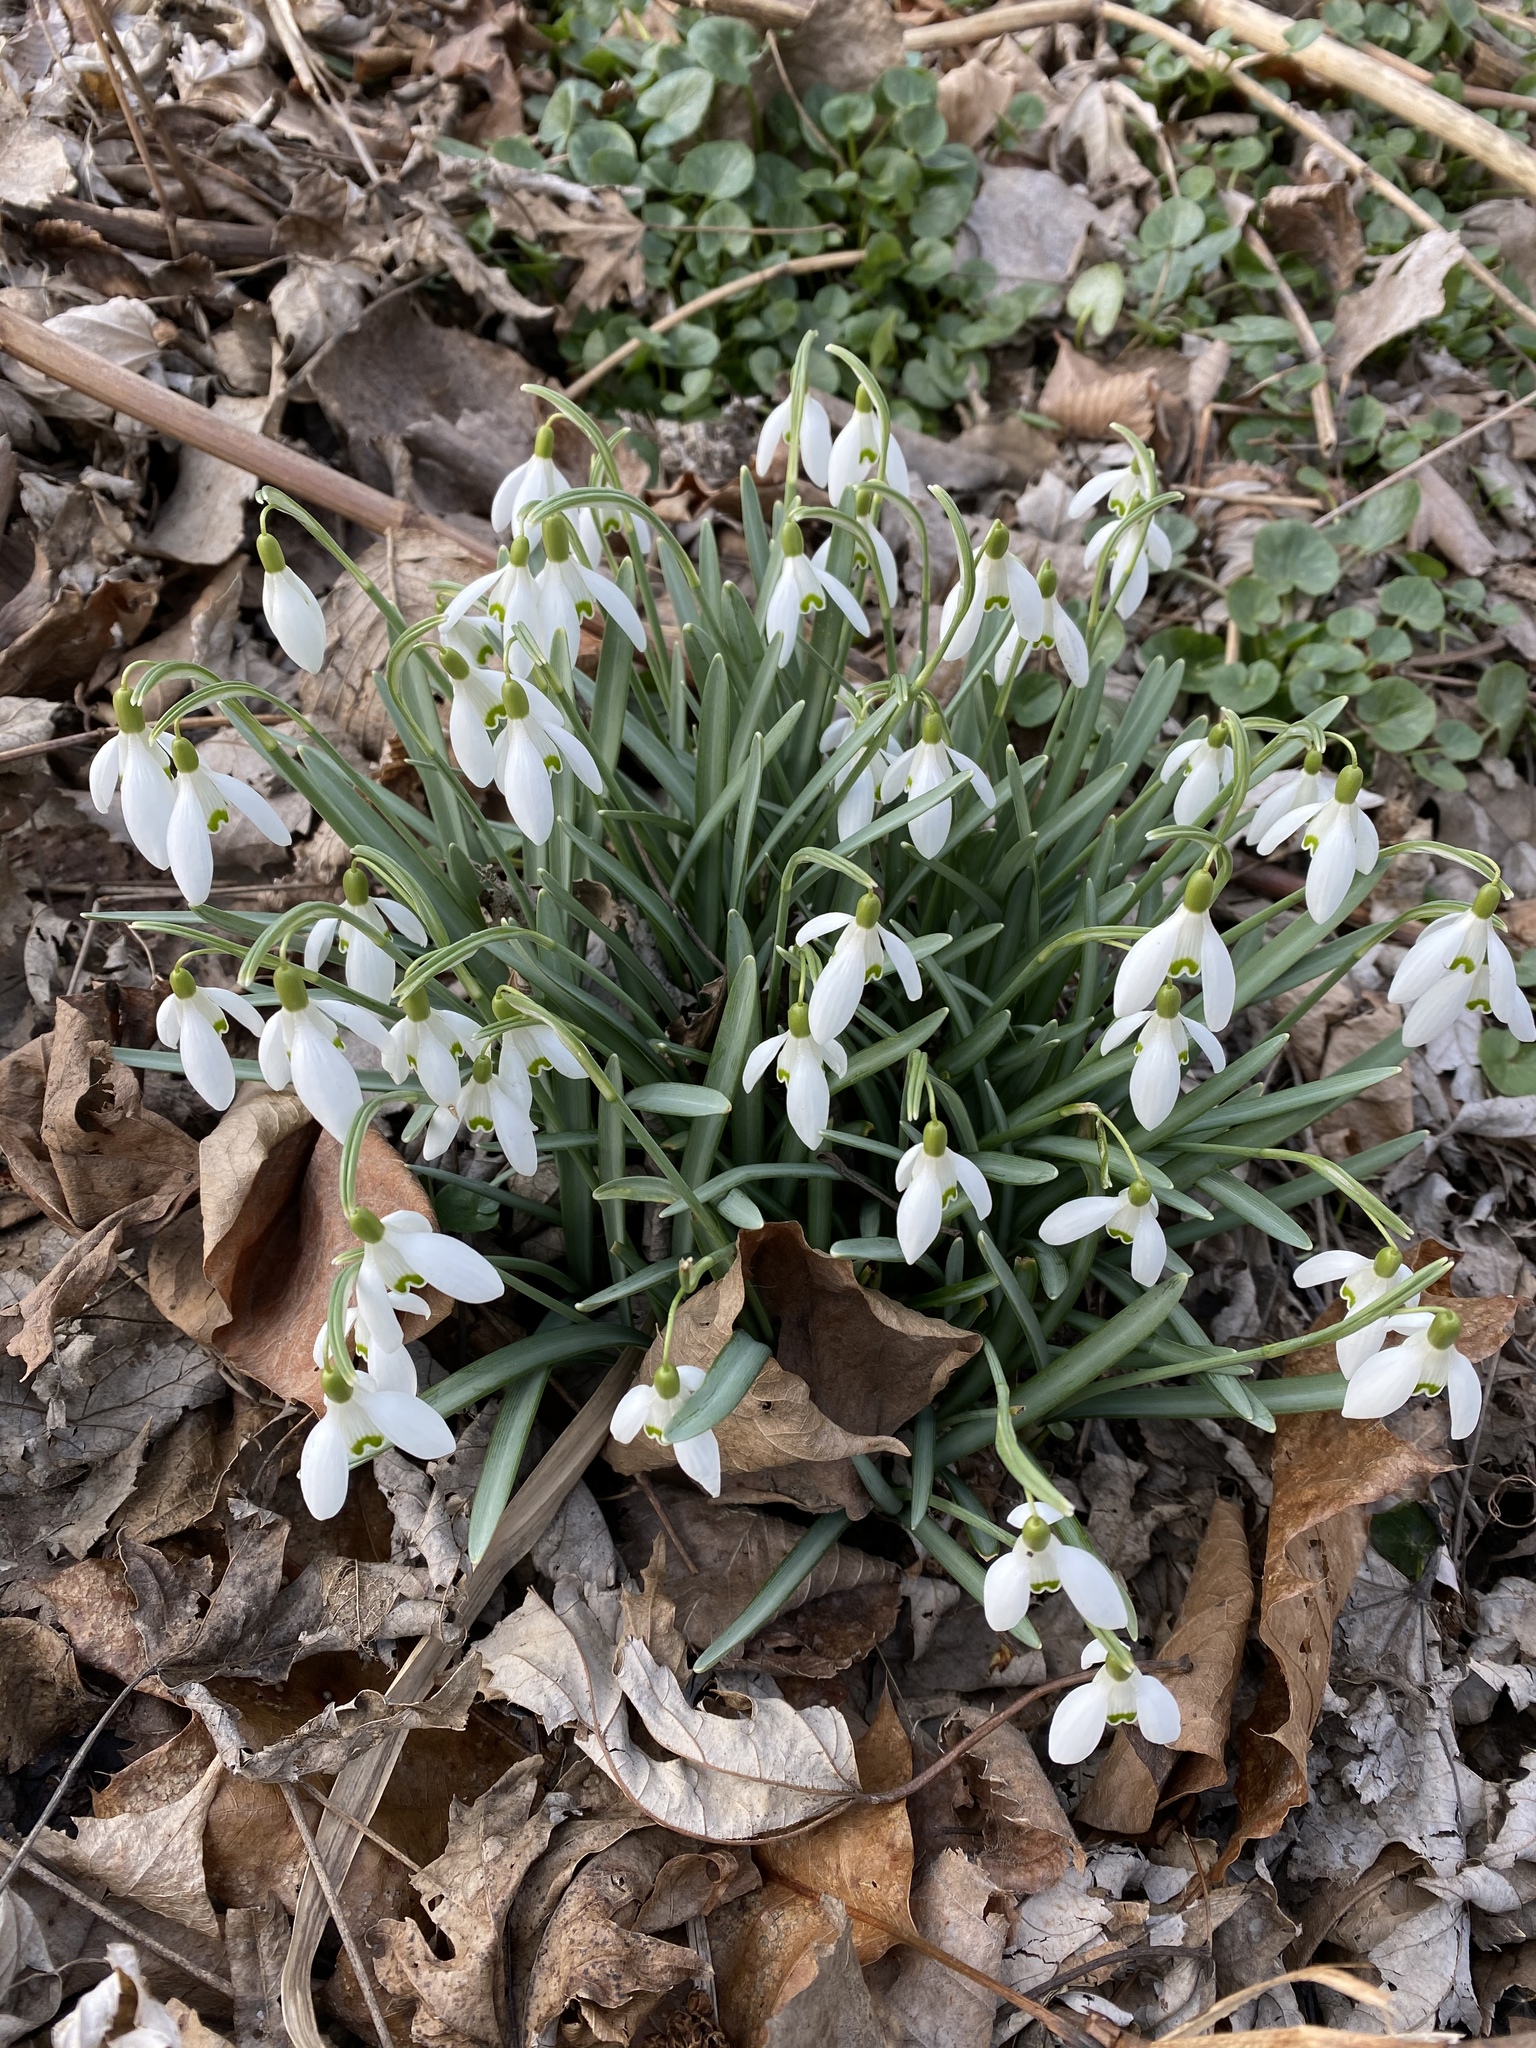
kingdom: Plantae
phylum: Tracheophyta
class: Liliopsida
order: Asparagales
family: Amaryllidaceae
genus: Galanthus
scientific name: Galanthus nivalis
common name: Snowdrop
